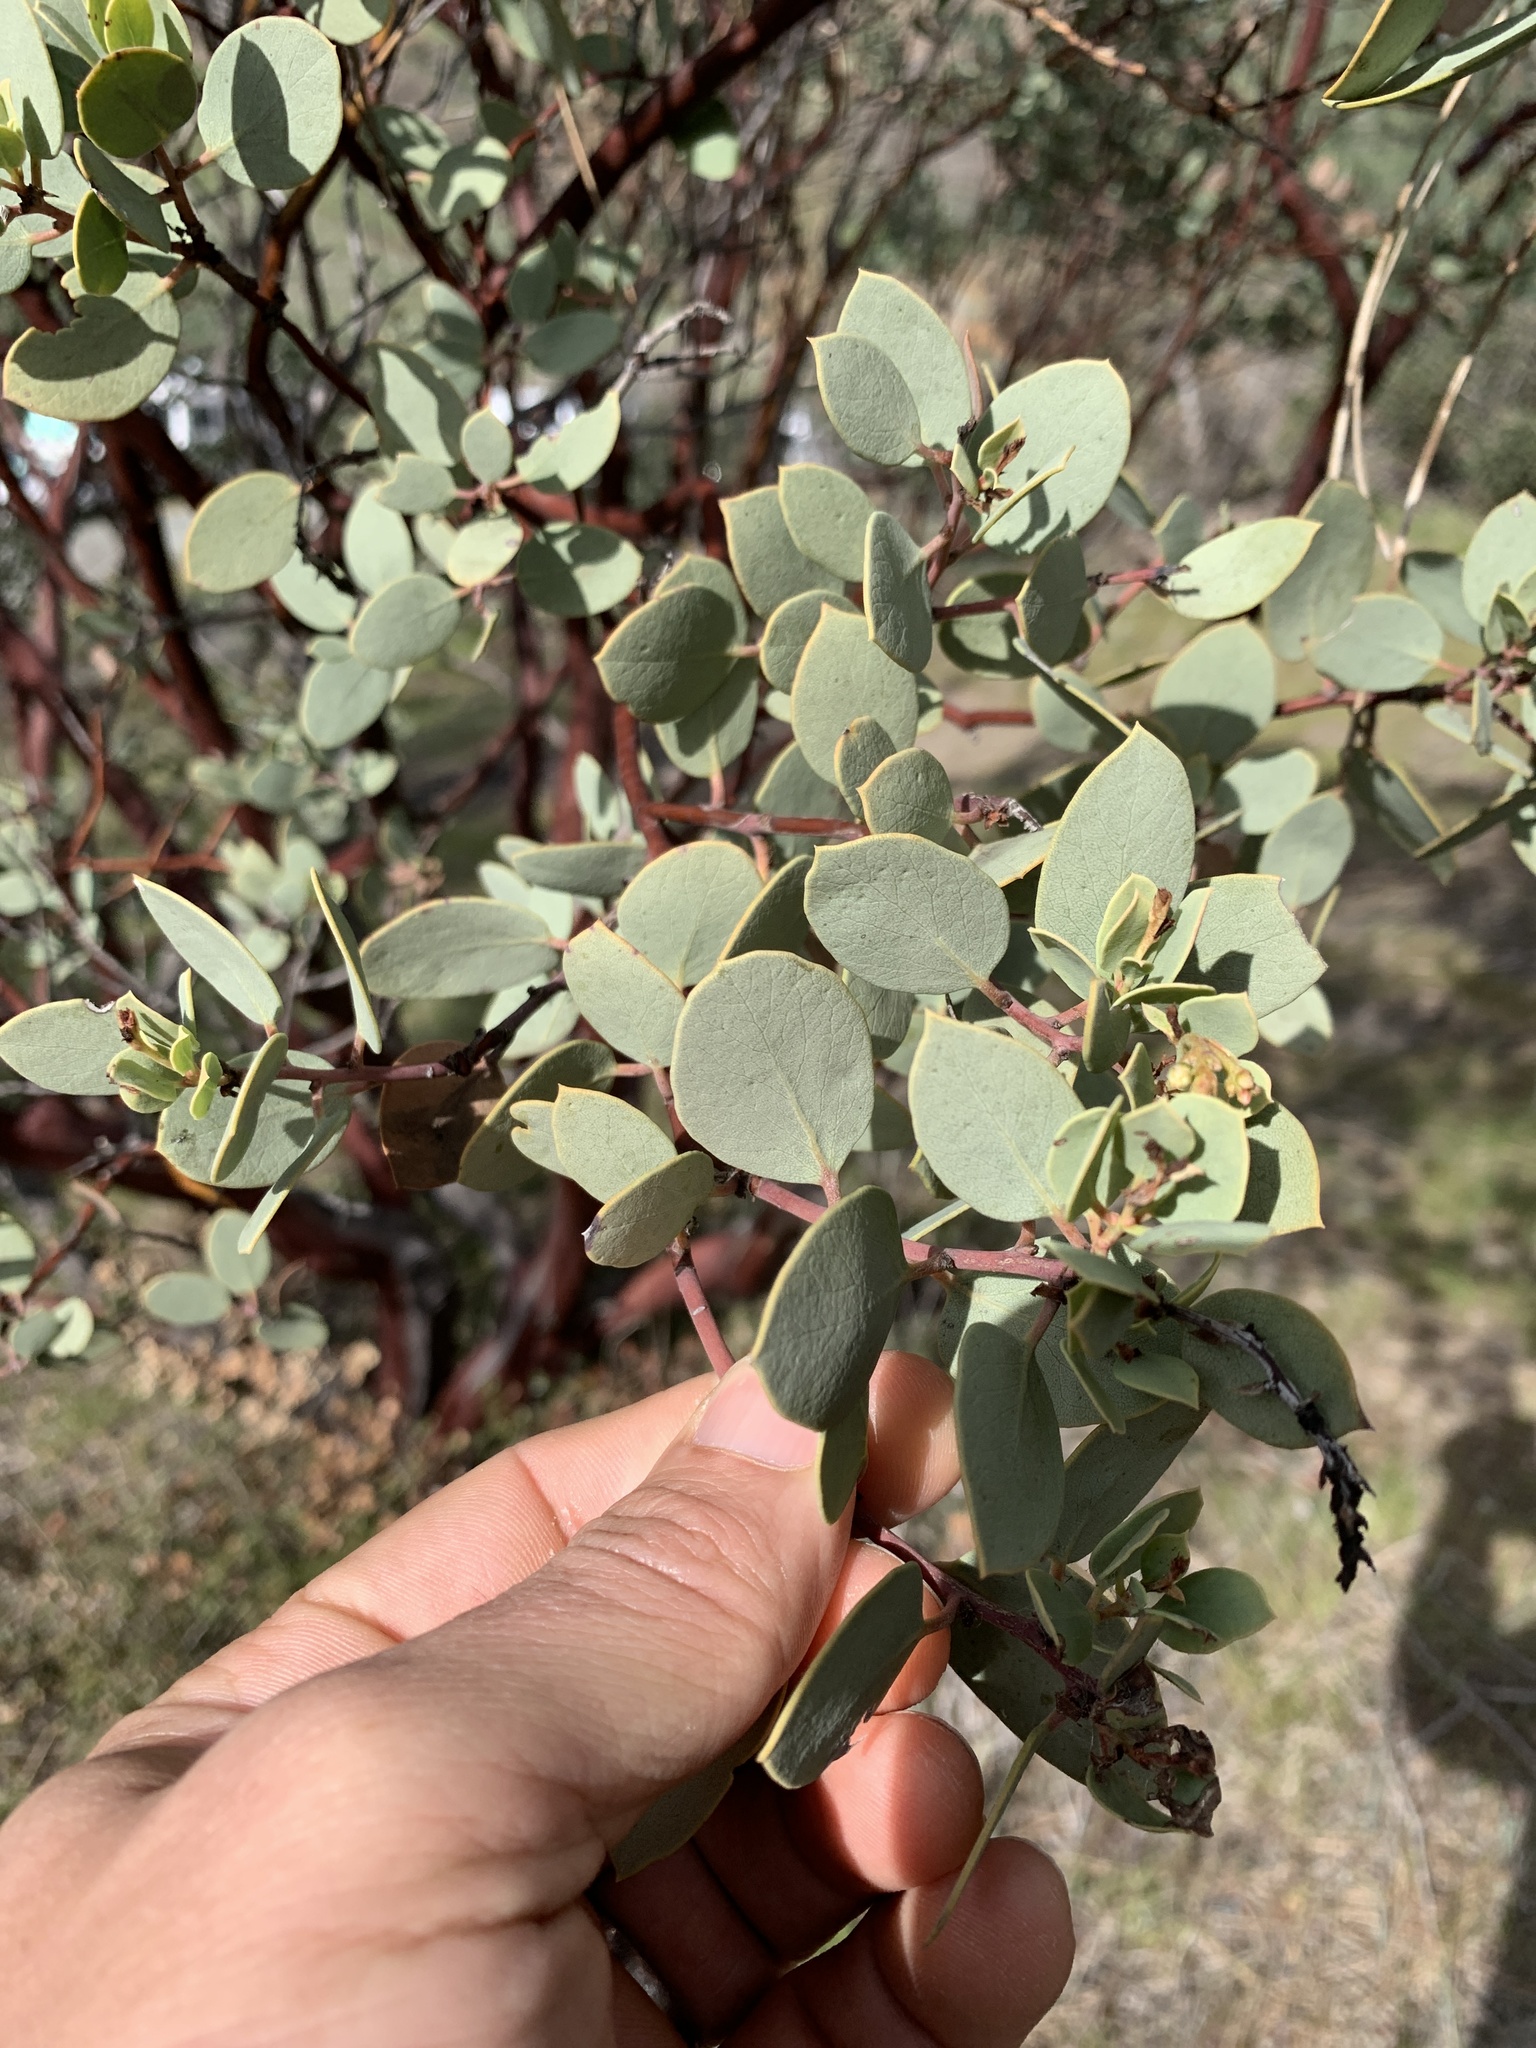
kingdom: Plantae
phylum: Tracheophyta
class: Magnoliopsida
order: Ericales
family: Ericaceae
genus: Arctostaphylos
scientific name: Arctostaphylos viscida
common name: White-leaf manzanita
